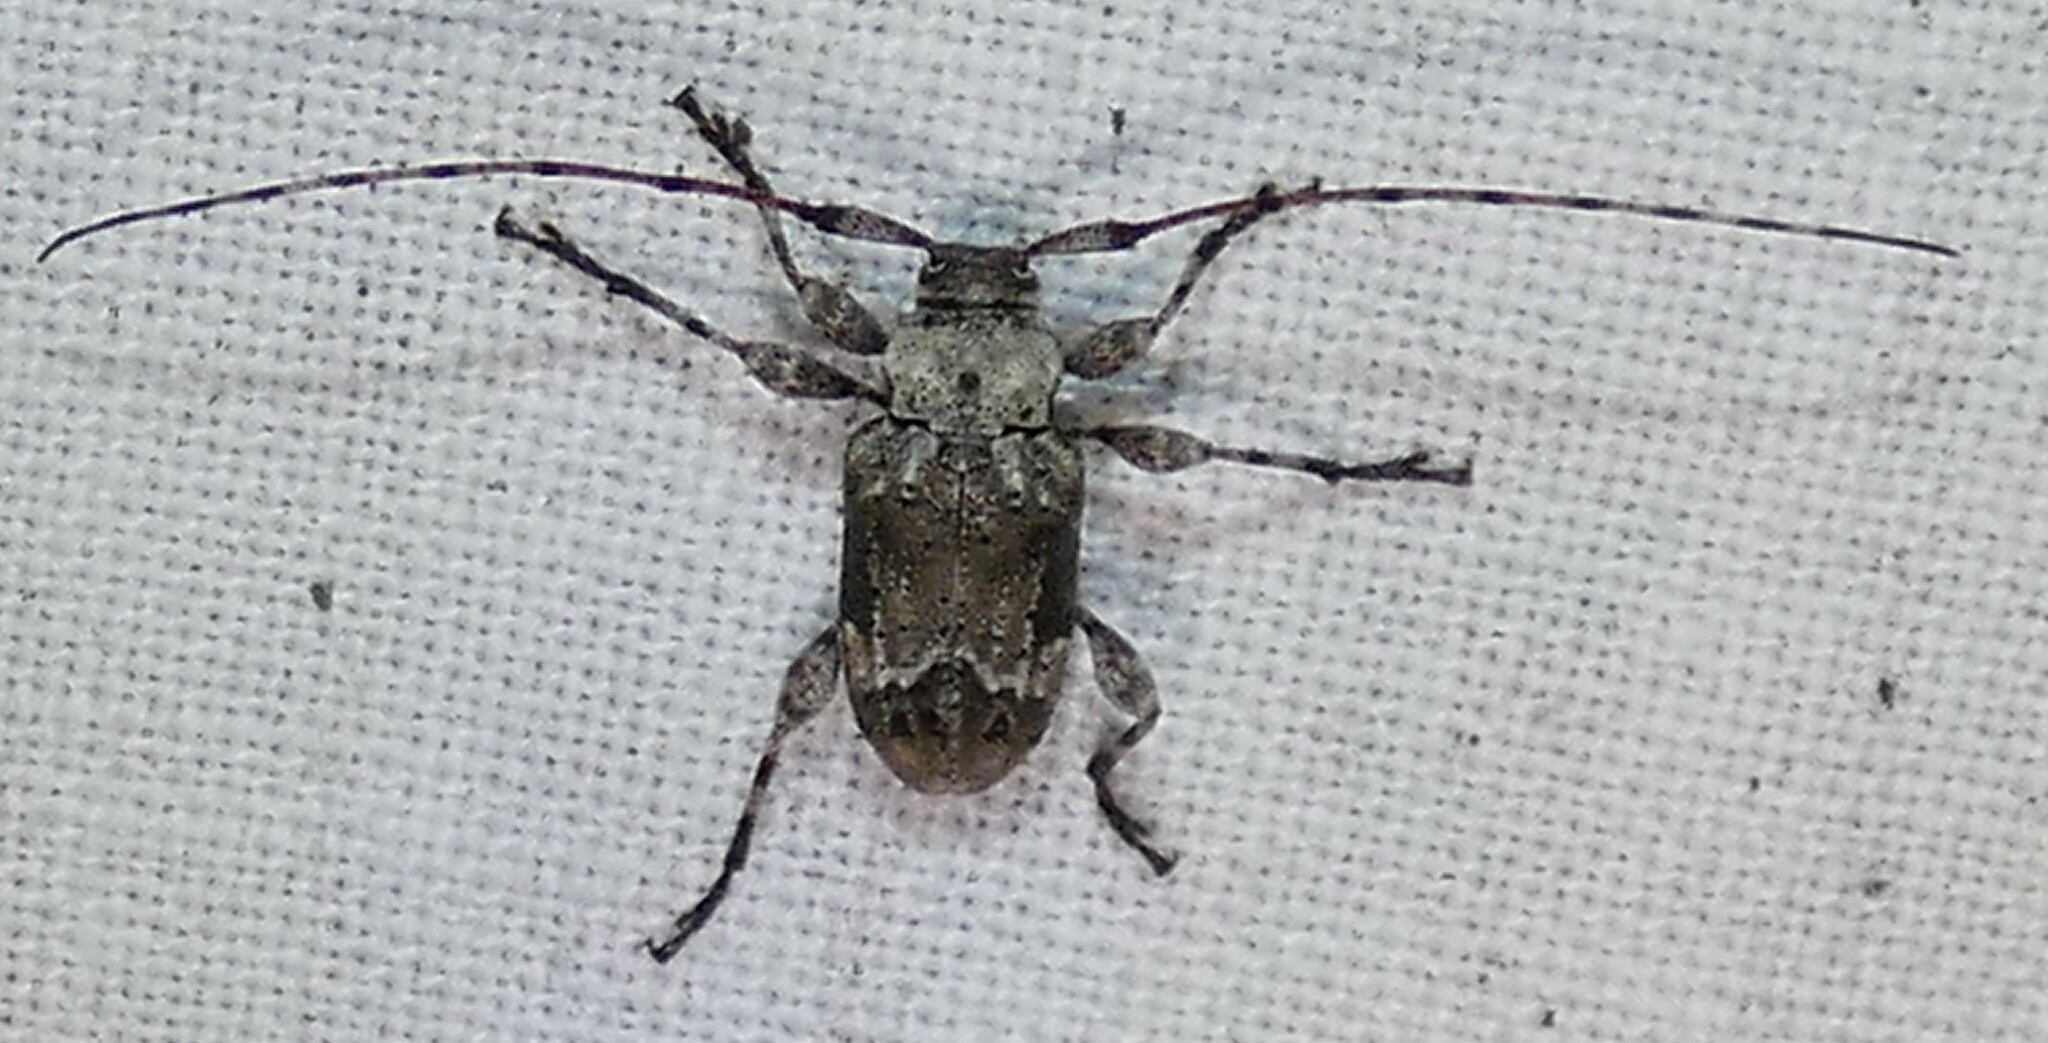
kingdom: Animalia
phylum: Arthropoda
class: Insecta
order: Coleoptera
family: Cerambycidae
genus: Leptostylopsis
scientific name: Leptostylopsis planidorsus
